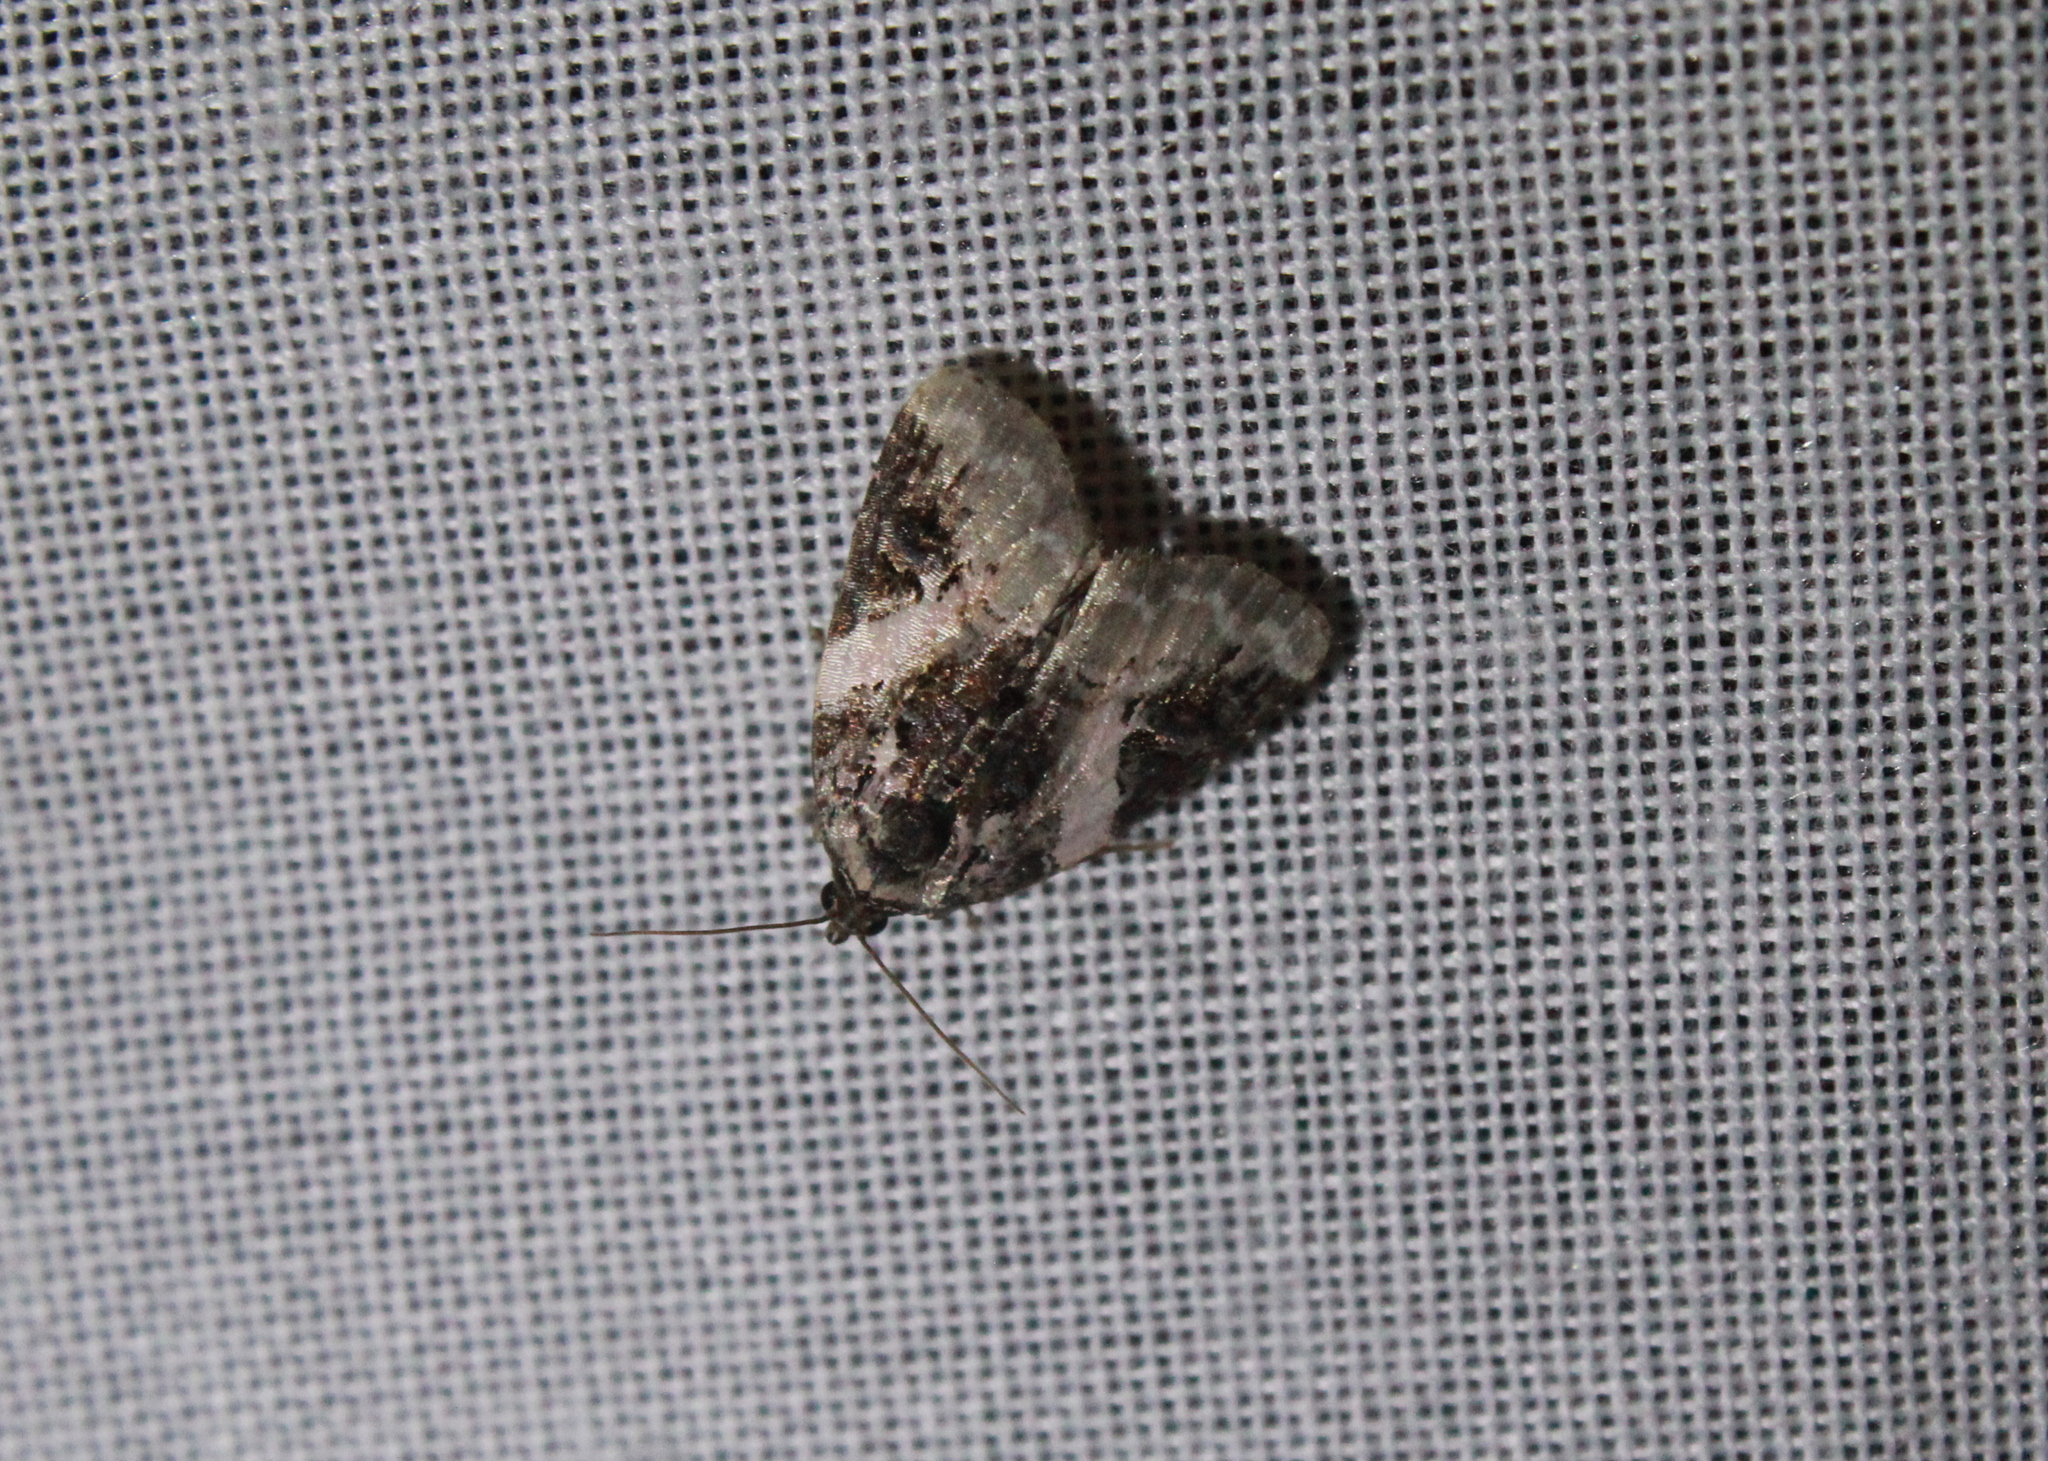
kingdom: Animalia
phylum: Arthropoda
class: Insecta
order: Lepidoptera
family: Noctuidae
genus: Pseudeustrotia
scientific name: Pseudeustrotia carneola
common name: Pink-barred lithacodia moth
